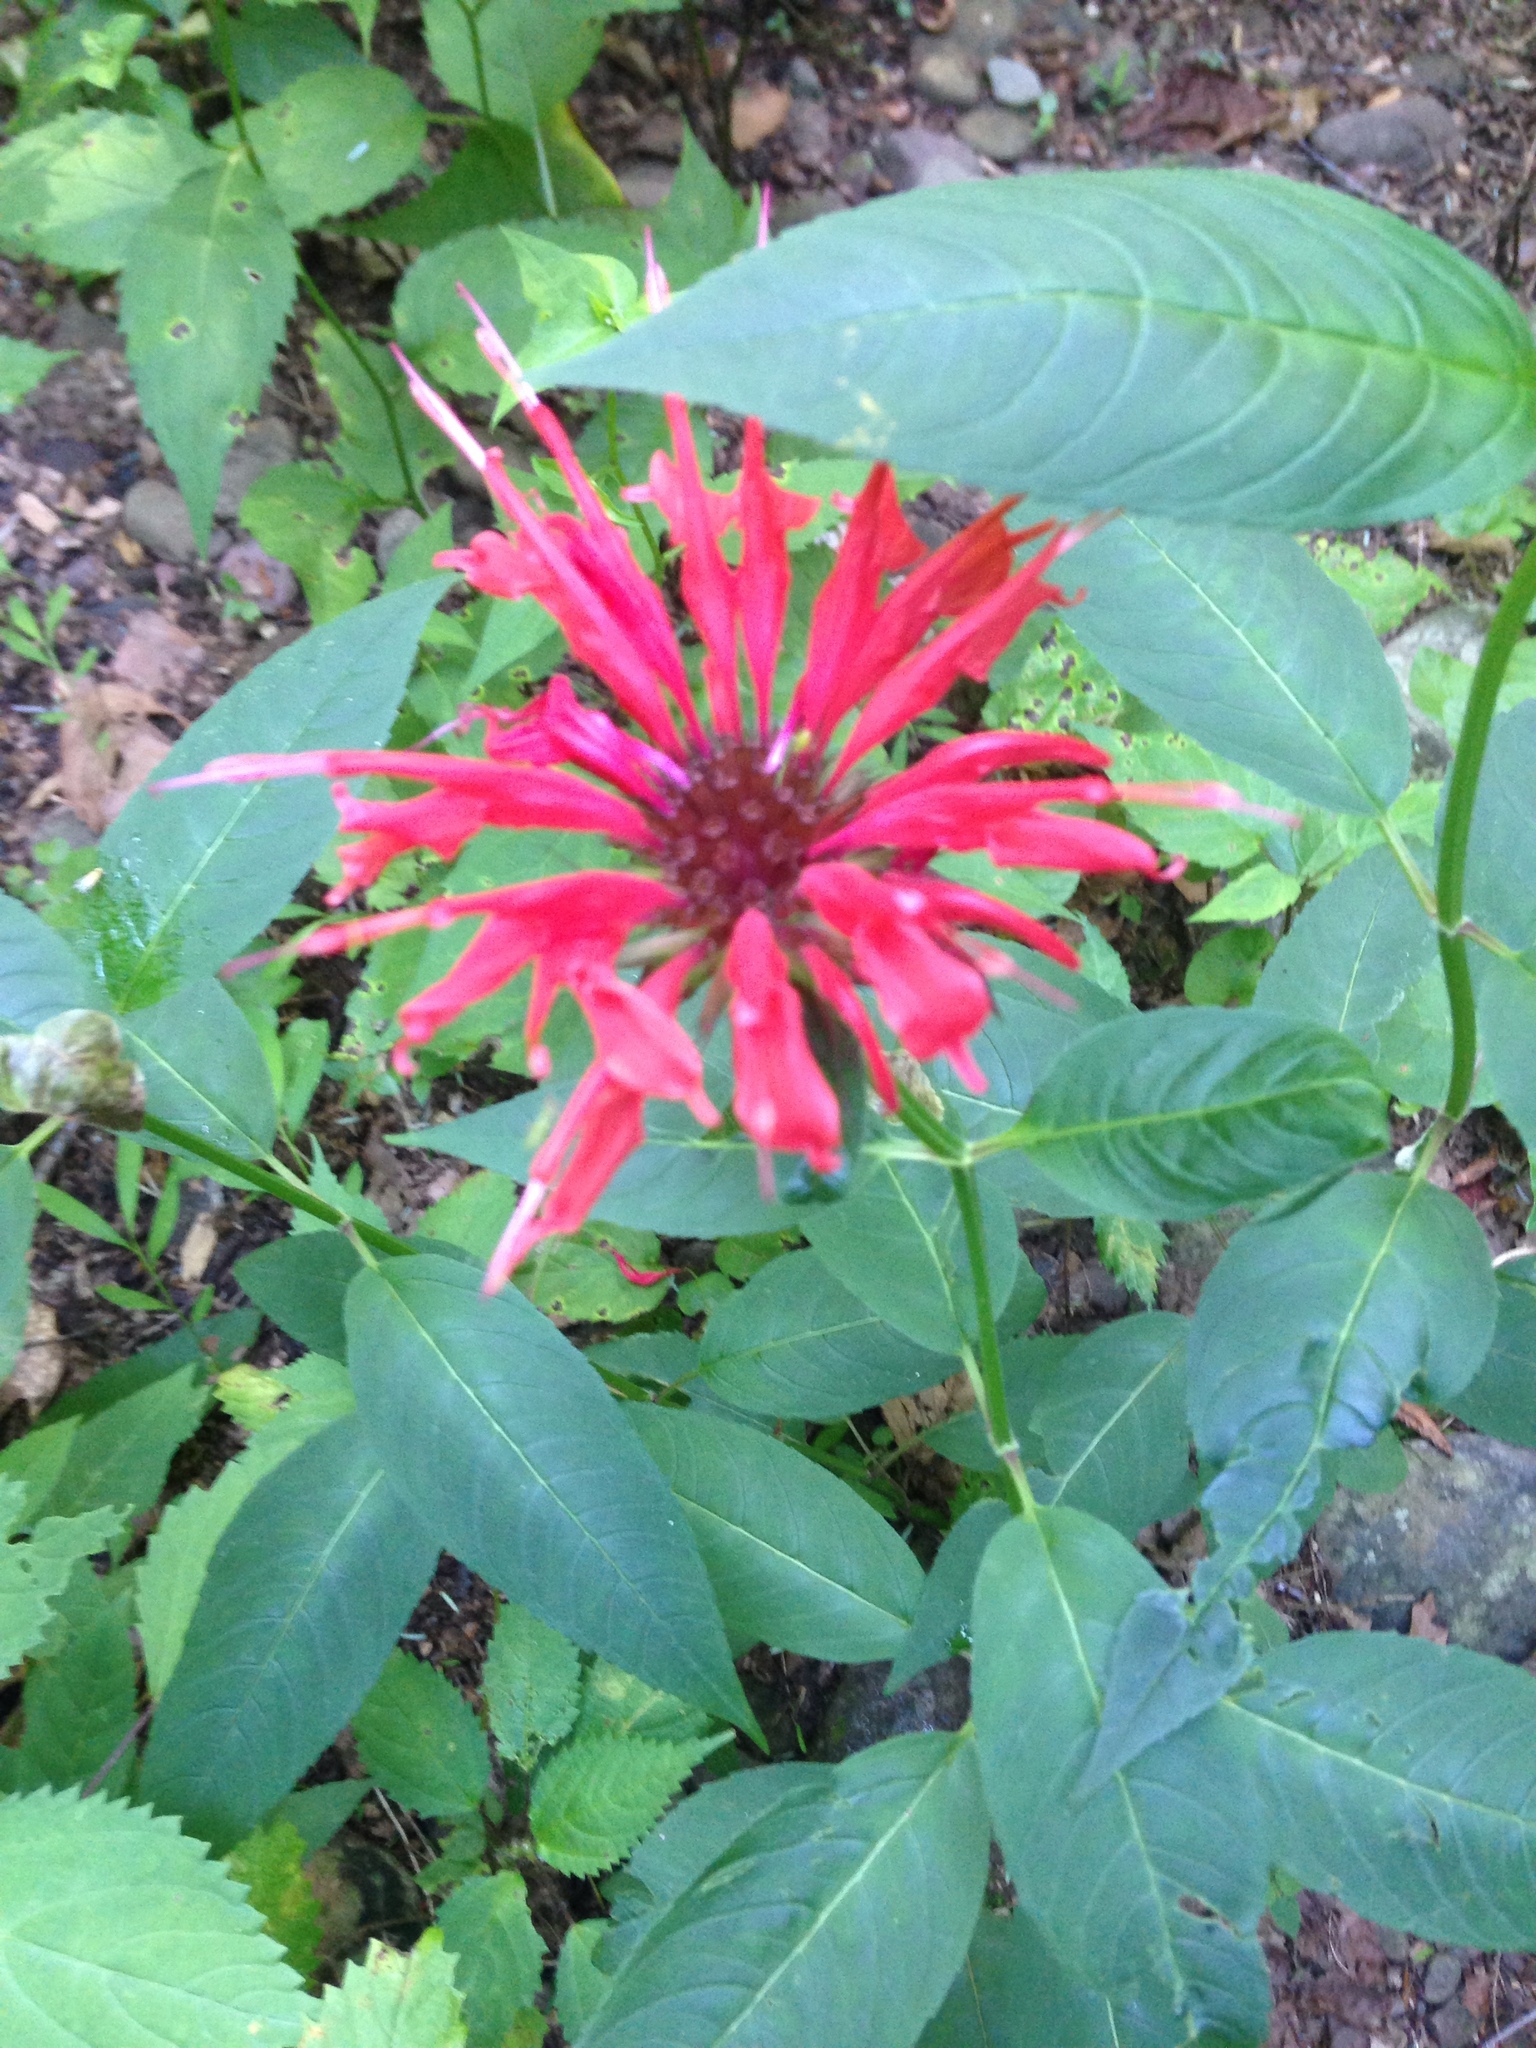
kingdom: Plantae
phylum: Tracheophyta
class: Magnoliopsida
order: Lamiales
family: Lamiaceae
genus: Monarda
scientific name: Monarda didyma
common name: Beebalm
